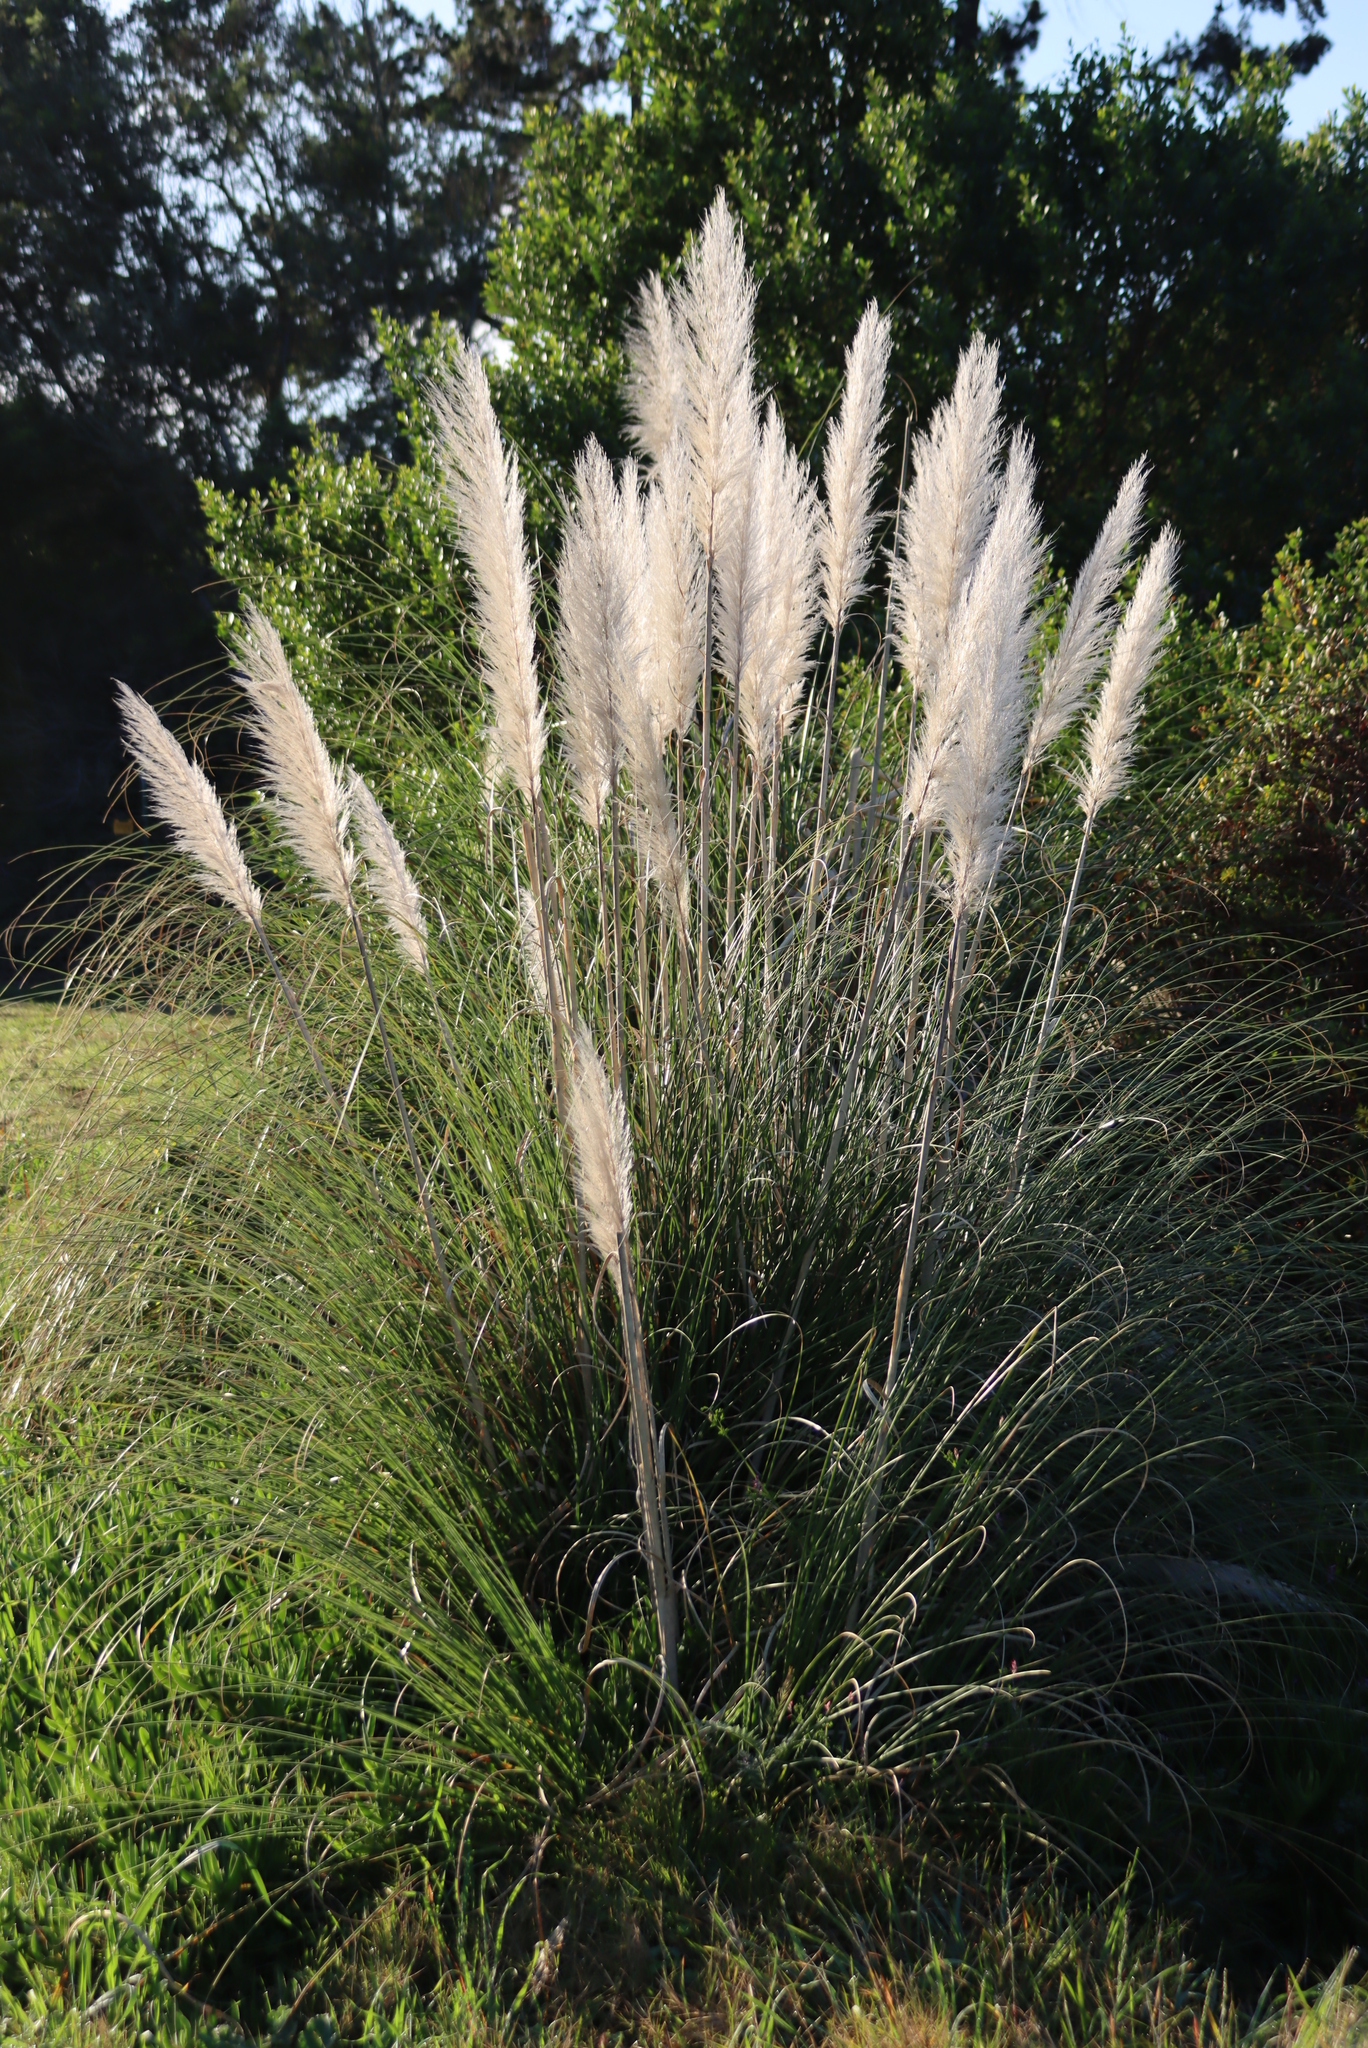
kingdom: Plantae
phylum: Tracheophyta
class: Liliopsida
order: Poales
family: Poaceae
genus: Cortaderia
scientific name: Cortaderia selloana
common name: Uruguayan pampas grass
